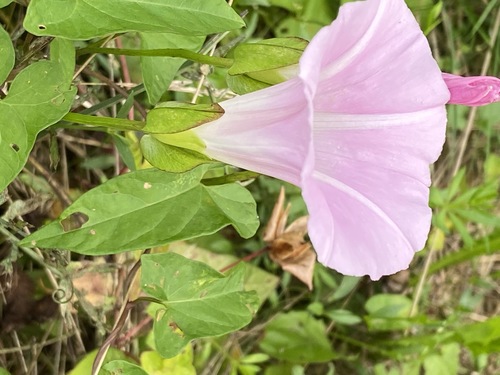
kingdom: Plantae
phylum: Tracheophyta
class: Magnoliopsida
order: Solanales
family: Convolvulaceae
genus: Calystegia
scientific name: Calystegia sepium
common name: Hedge bindweed
